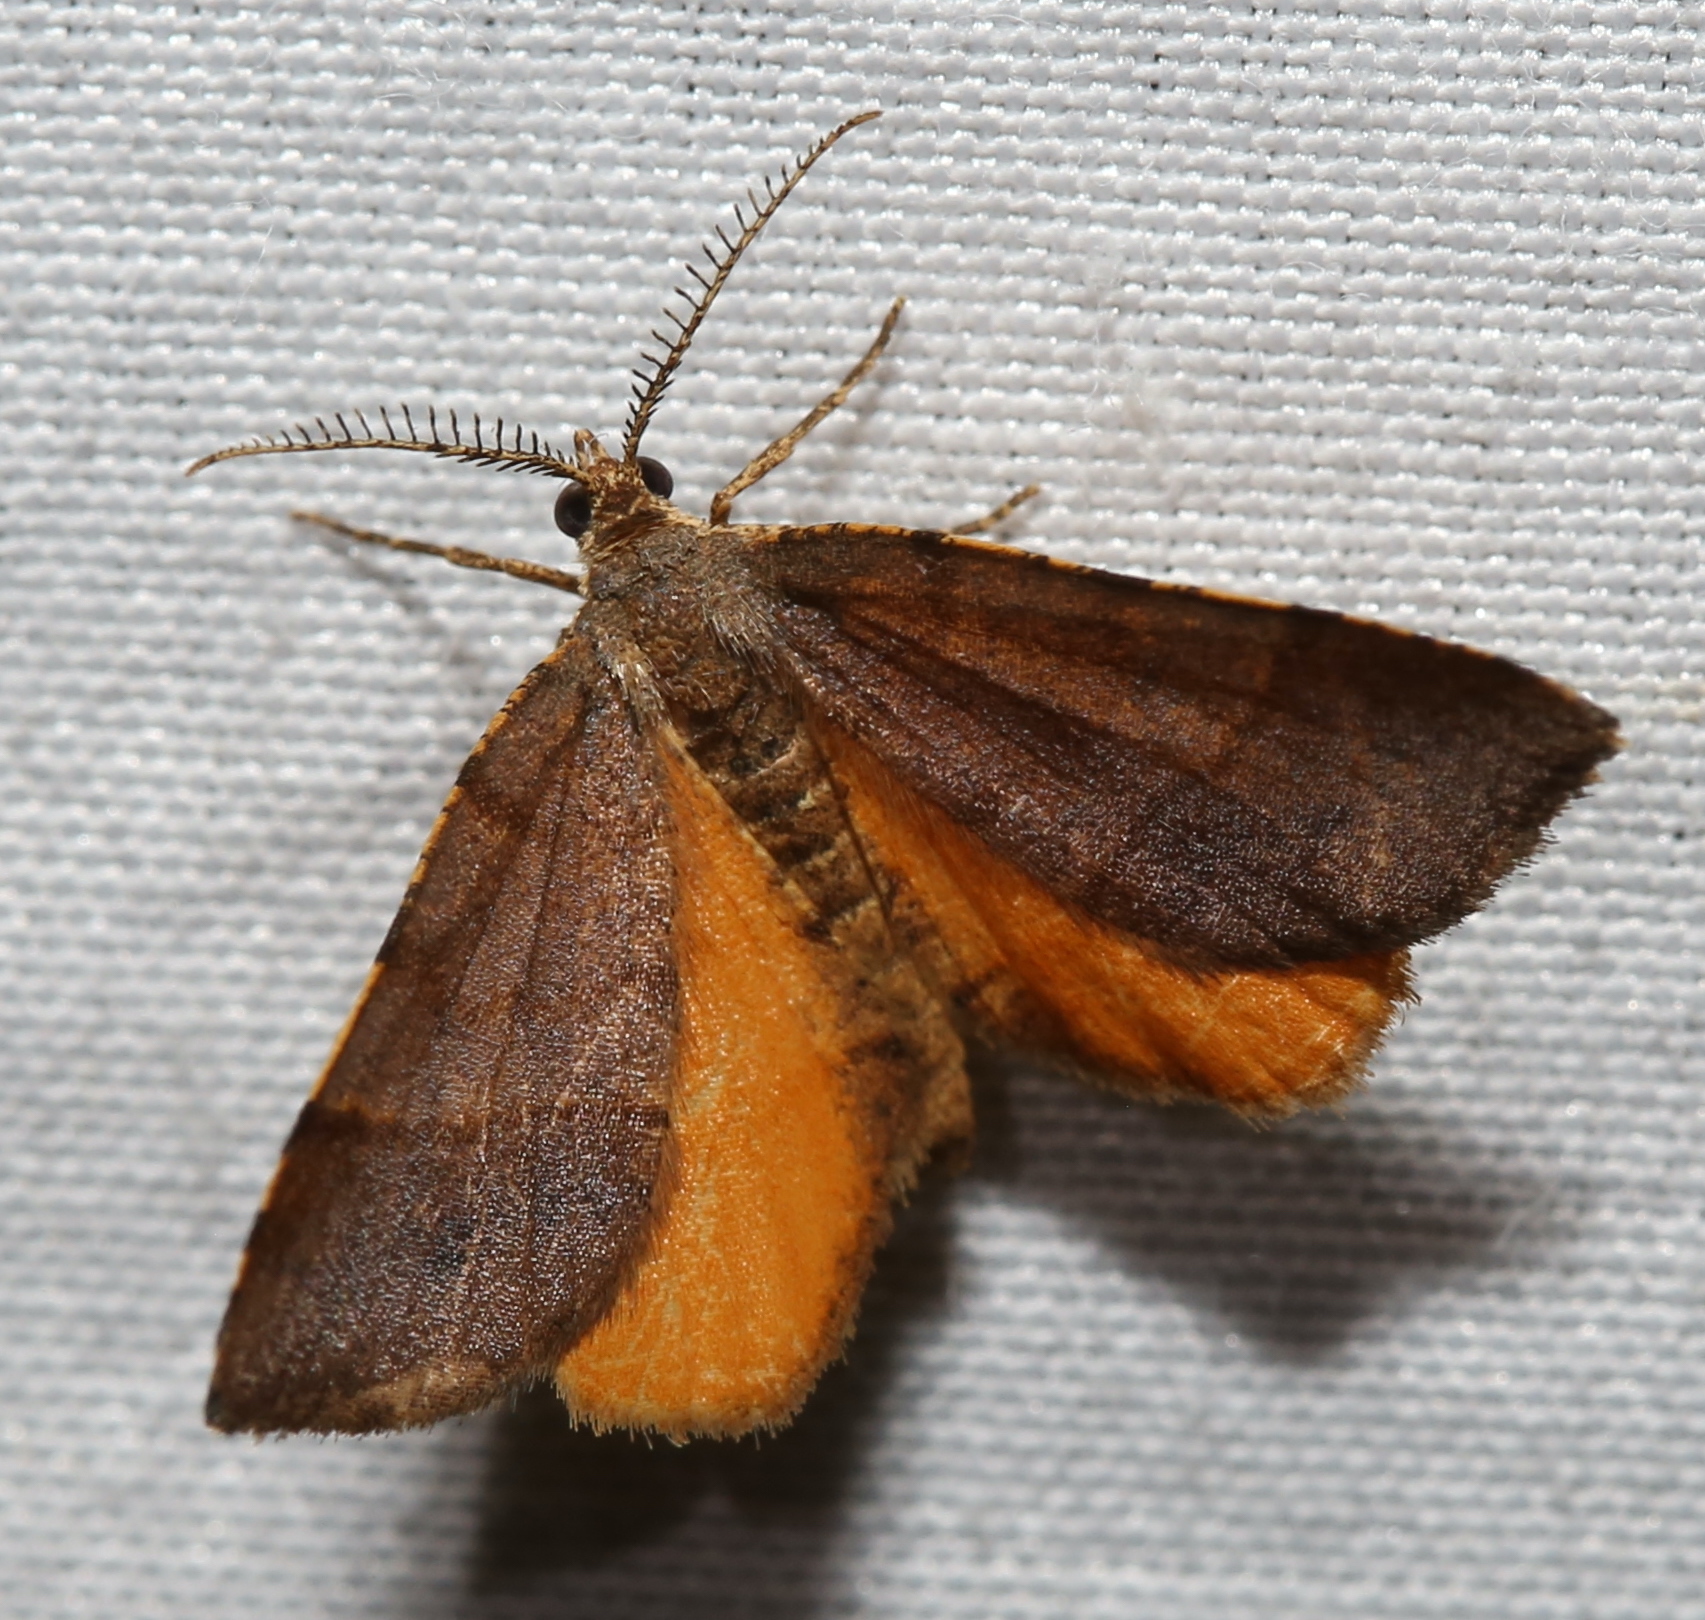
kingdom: Animalia
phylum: Arthropoda
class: Insecta
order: Lepidoptera
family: Geometridae
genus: Mellilla
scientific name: Mellilla xanthometata
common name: Orange wing moth
